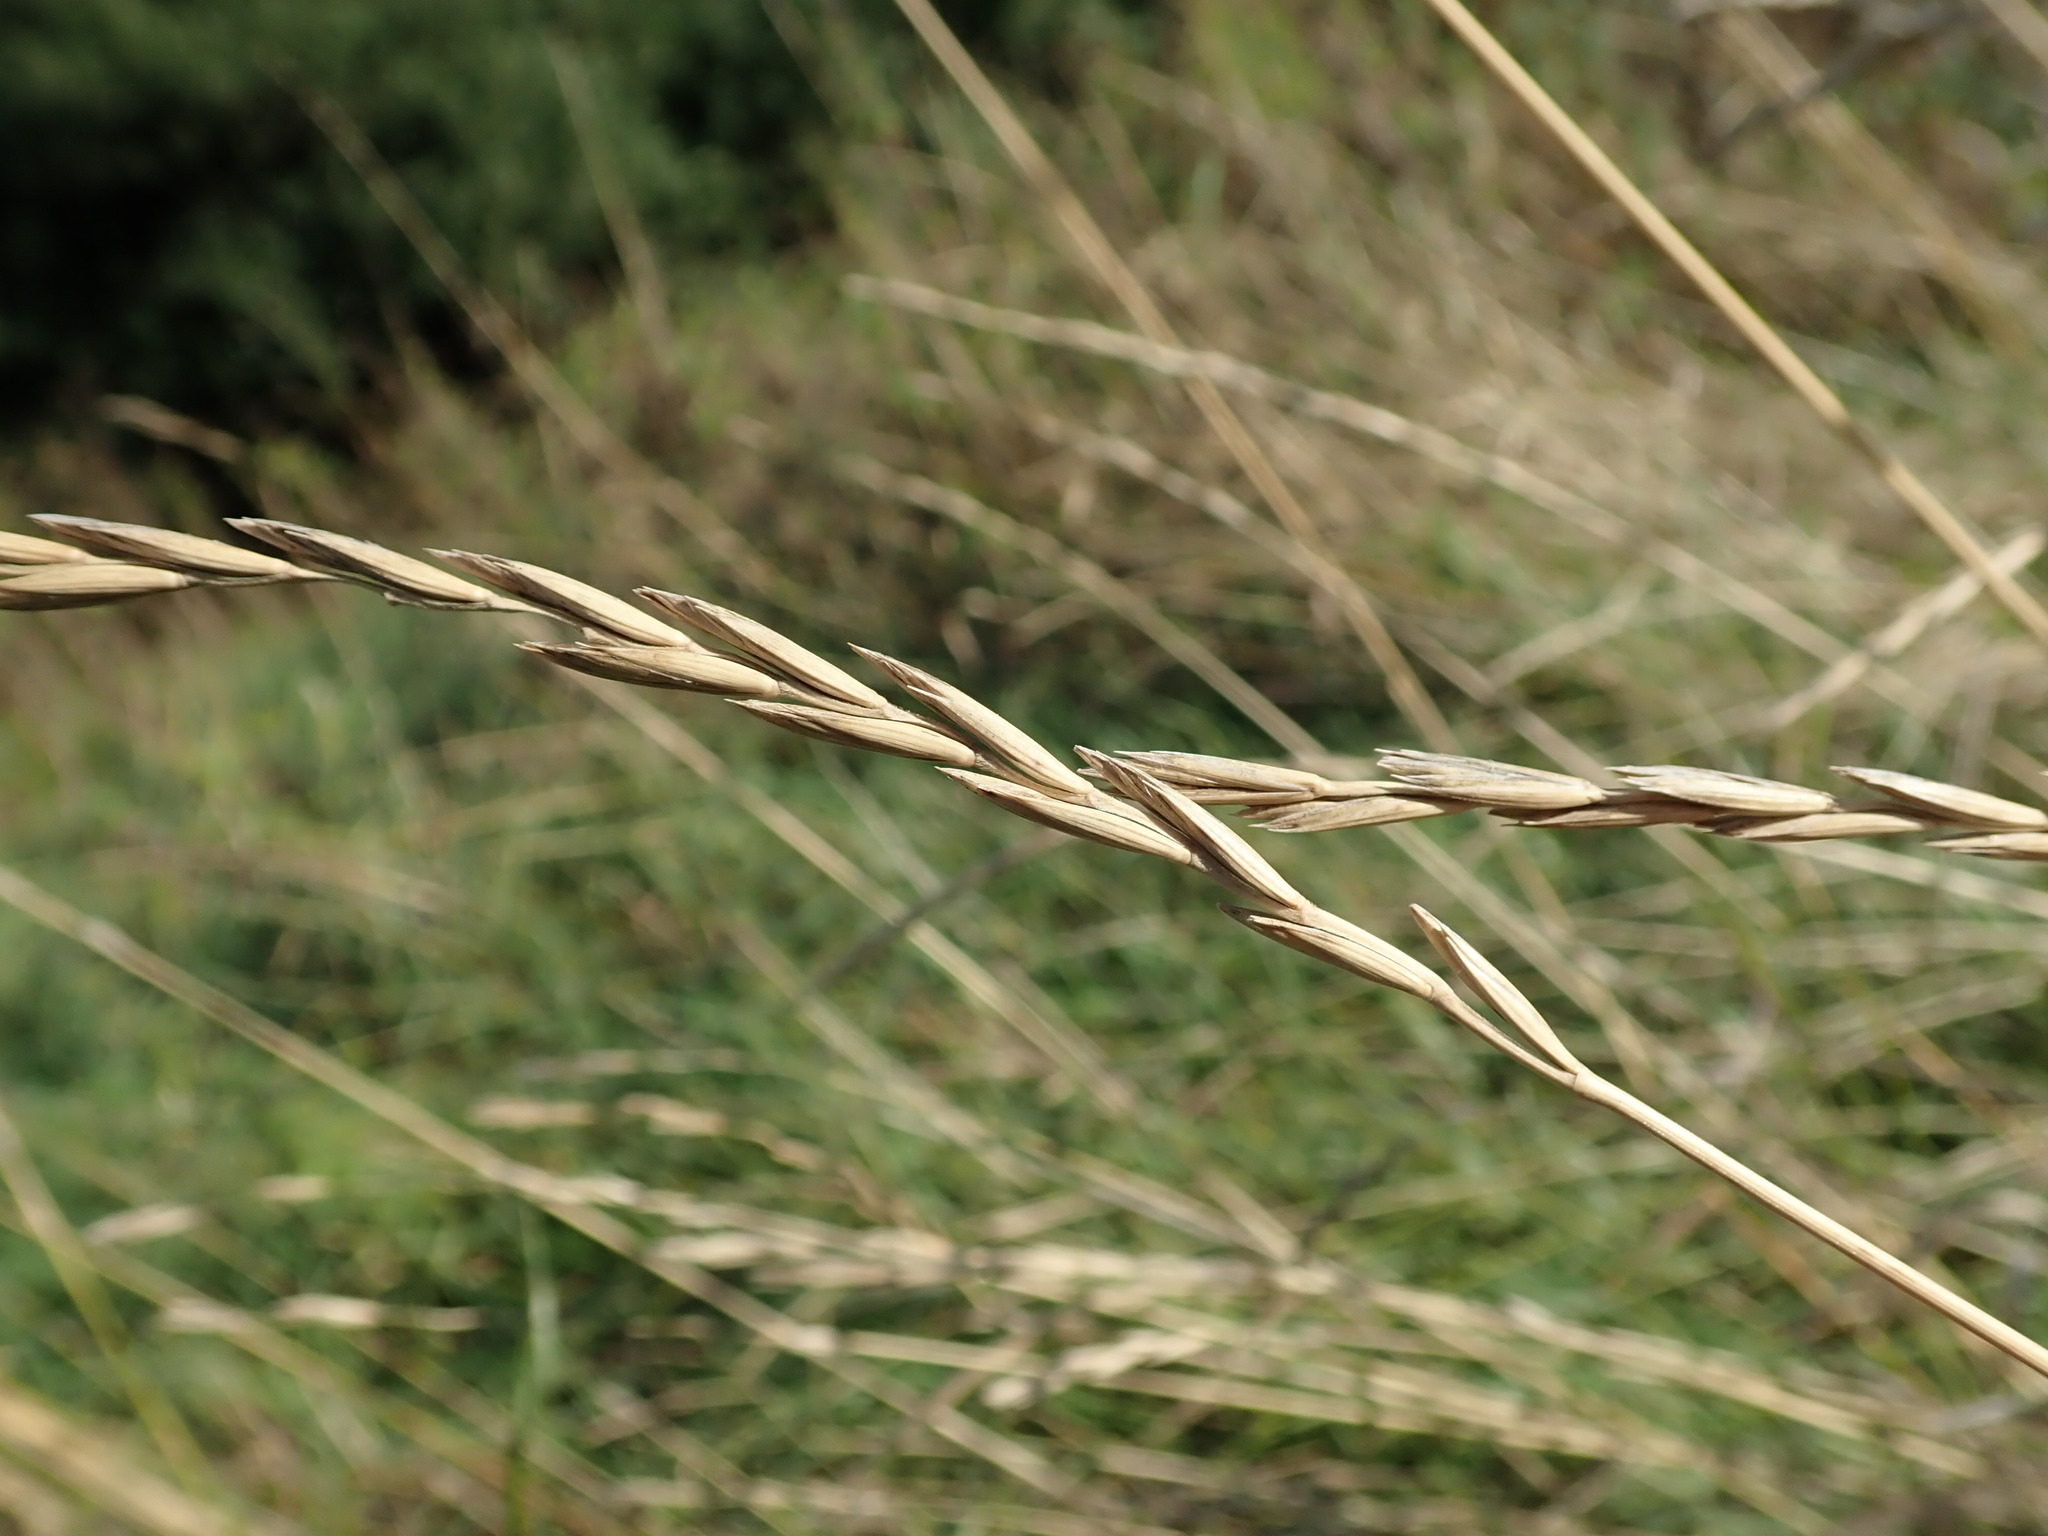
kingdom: Plantae
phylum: Tracheophyta
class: Liliopsida
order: Poales
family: Poaceae
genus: Elymus
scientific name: Elymus repens
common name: Quackgrass
